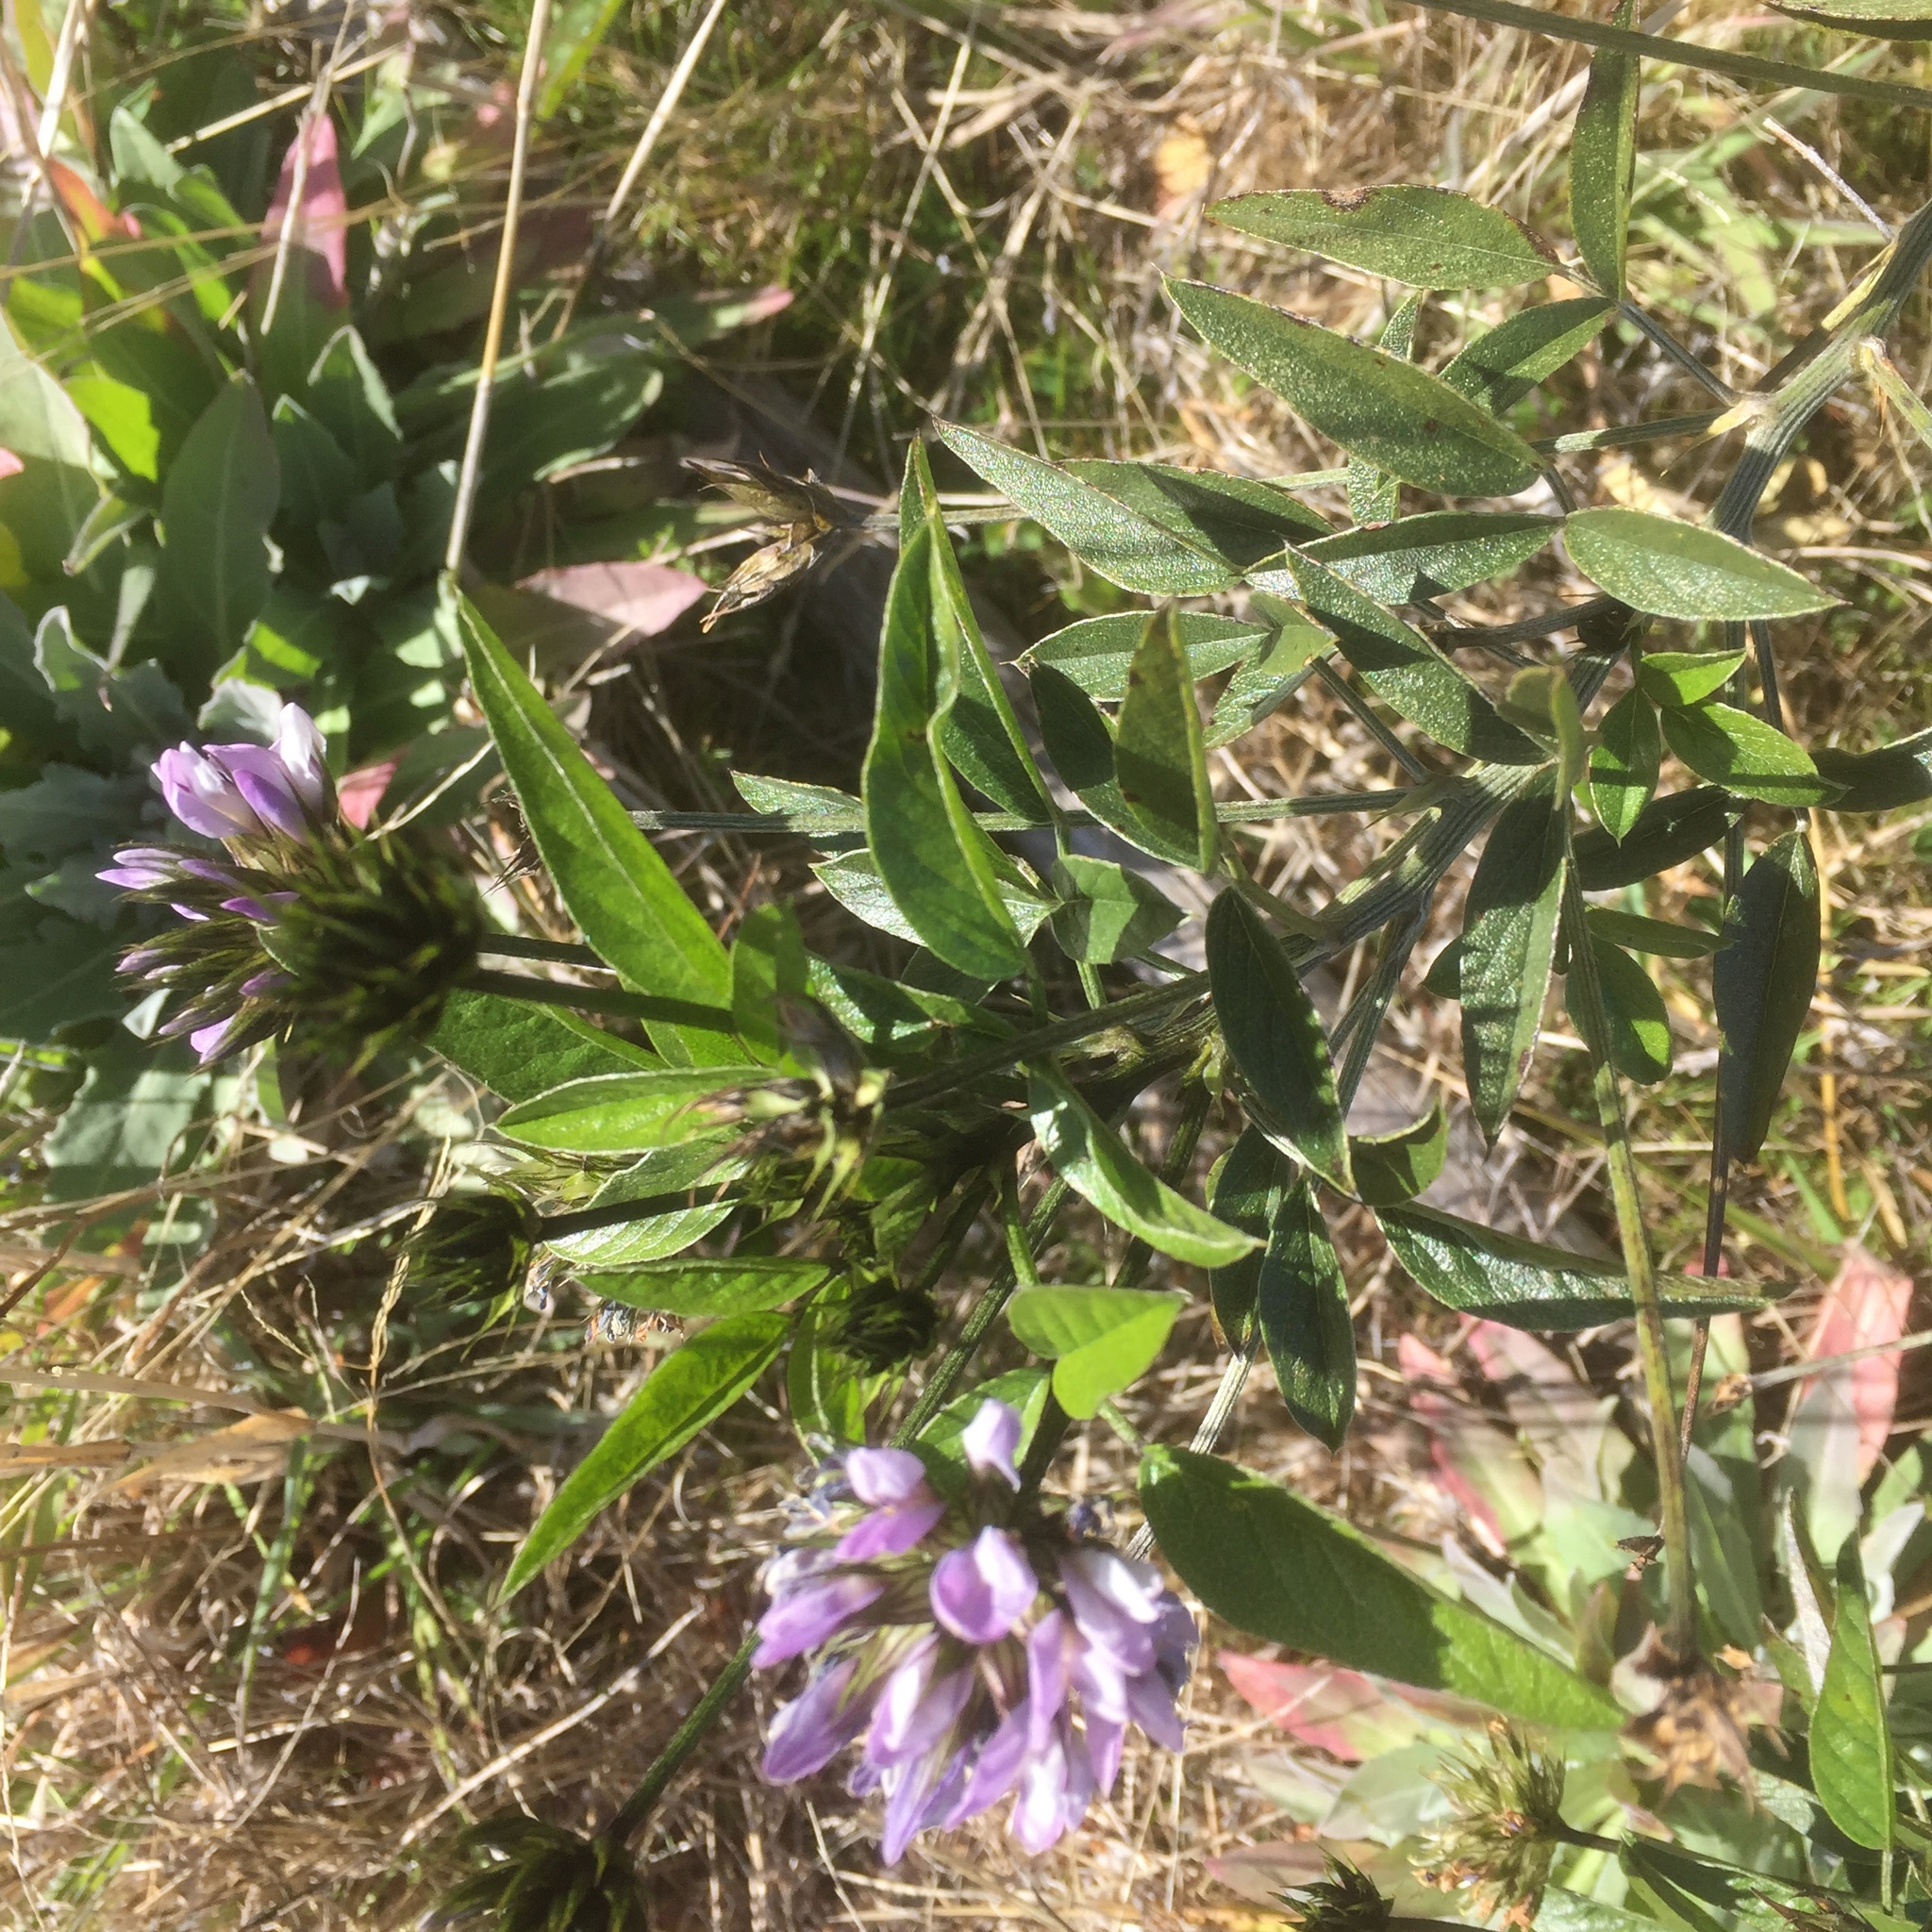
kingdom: Plantae
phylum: Tracheophyta
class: Magnoliopsida
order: Fabales
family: Fabaceae
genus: Bituminaria
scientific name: Bituminaria bituminosa
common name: Arabian pea
